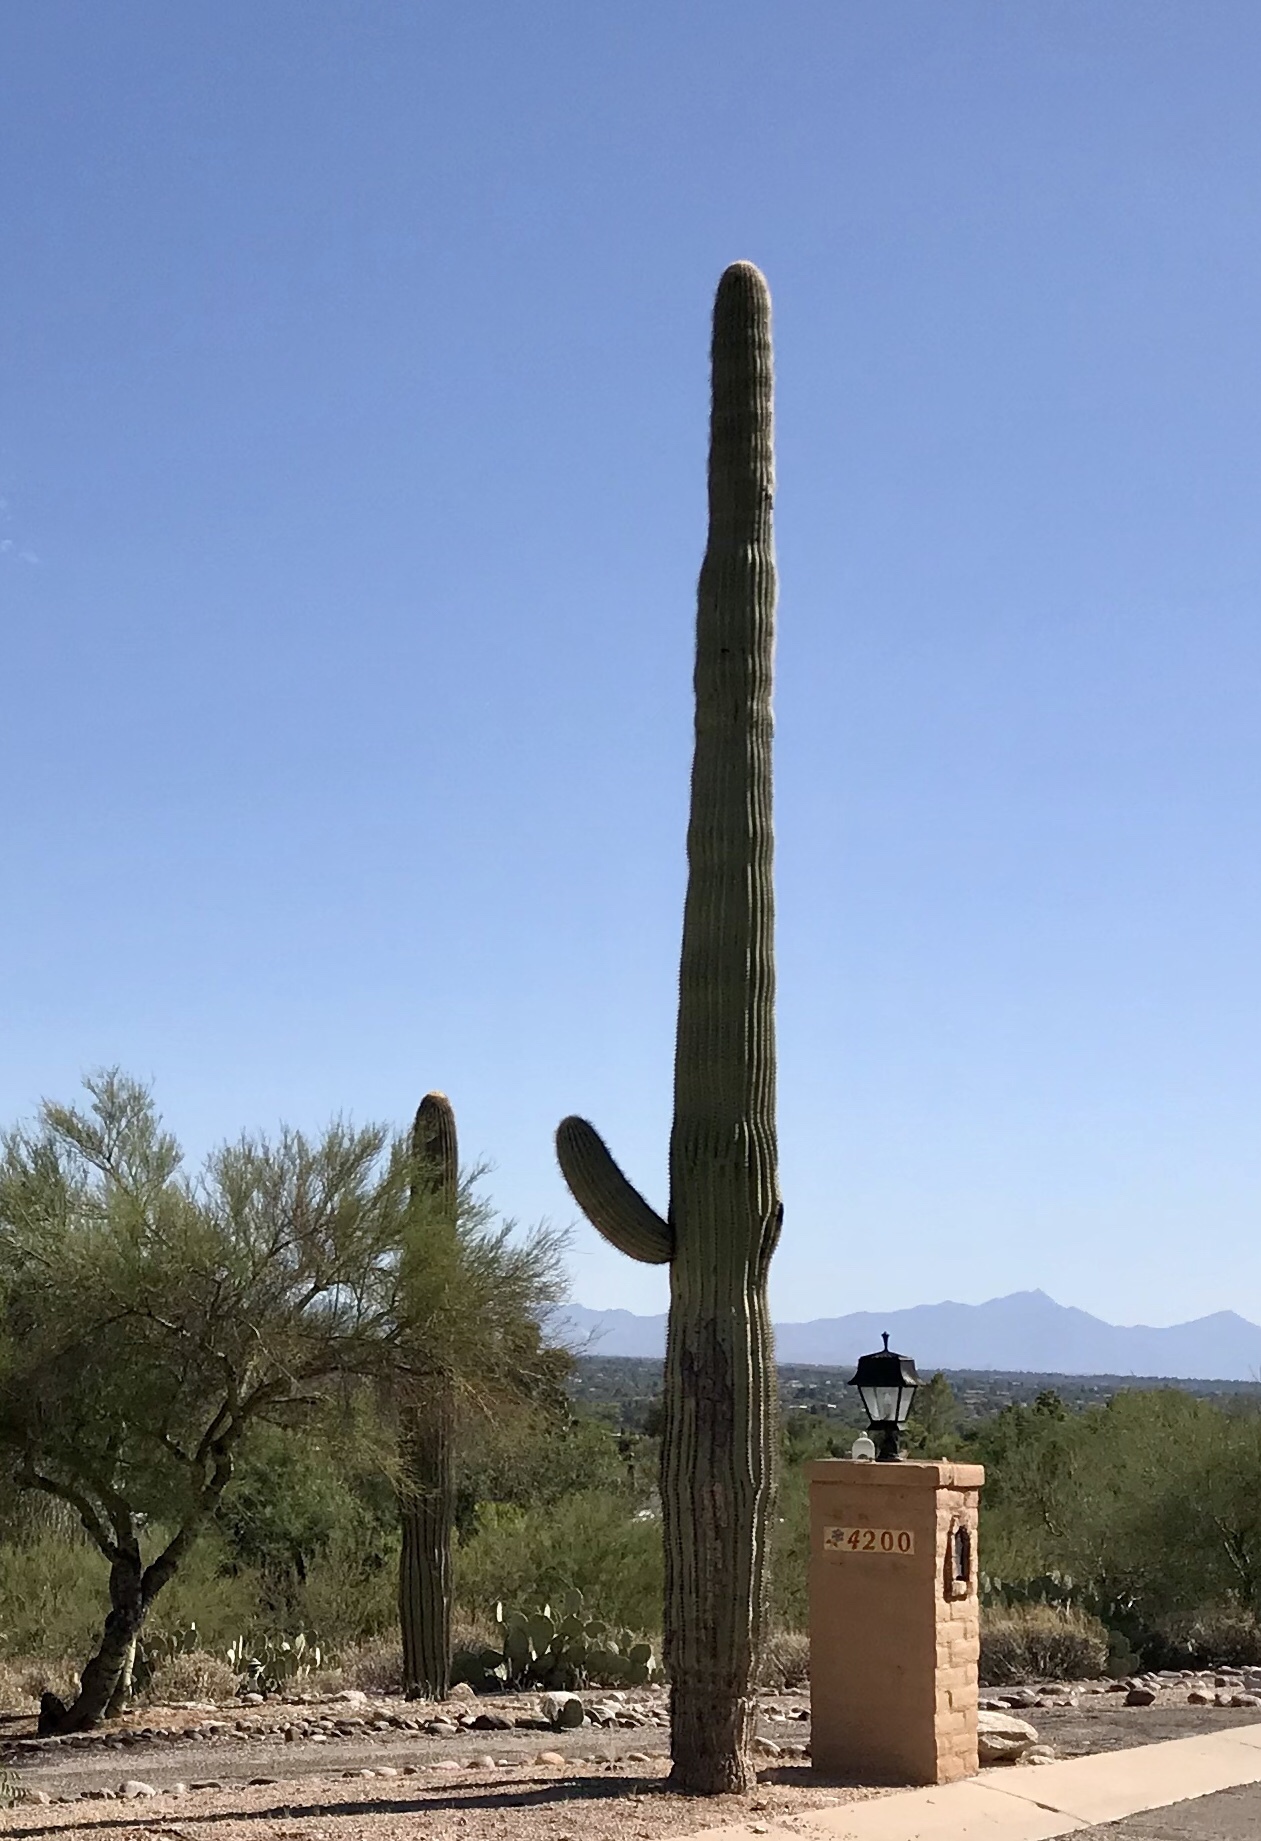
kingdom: Plantae
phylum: Tracheophyta
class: Magnoliopsida
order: Caryophyllales
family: Cactaceae
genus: Carnegiea
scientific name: Carnegiea gigantea
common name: Saguaro
